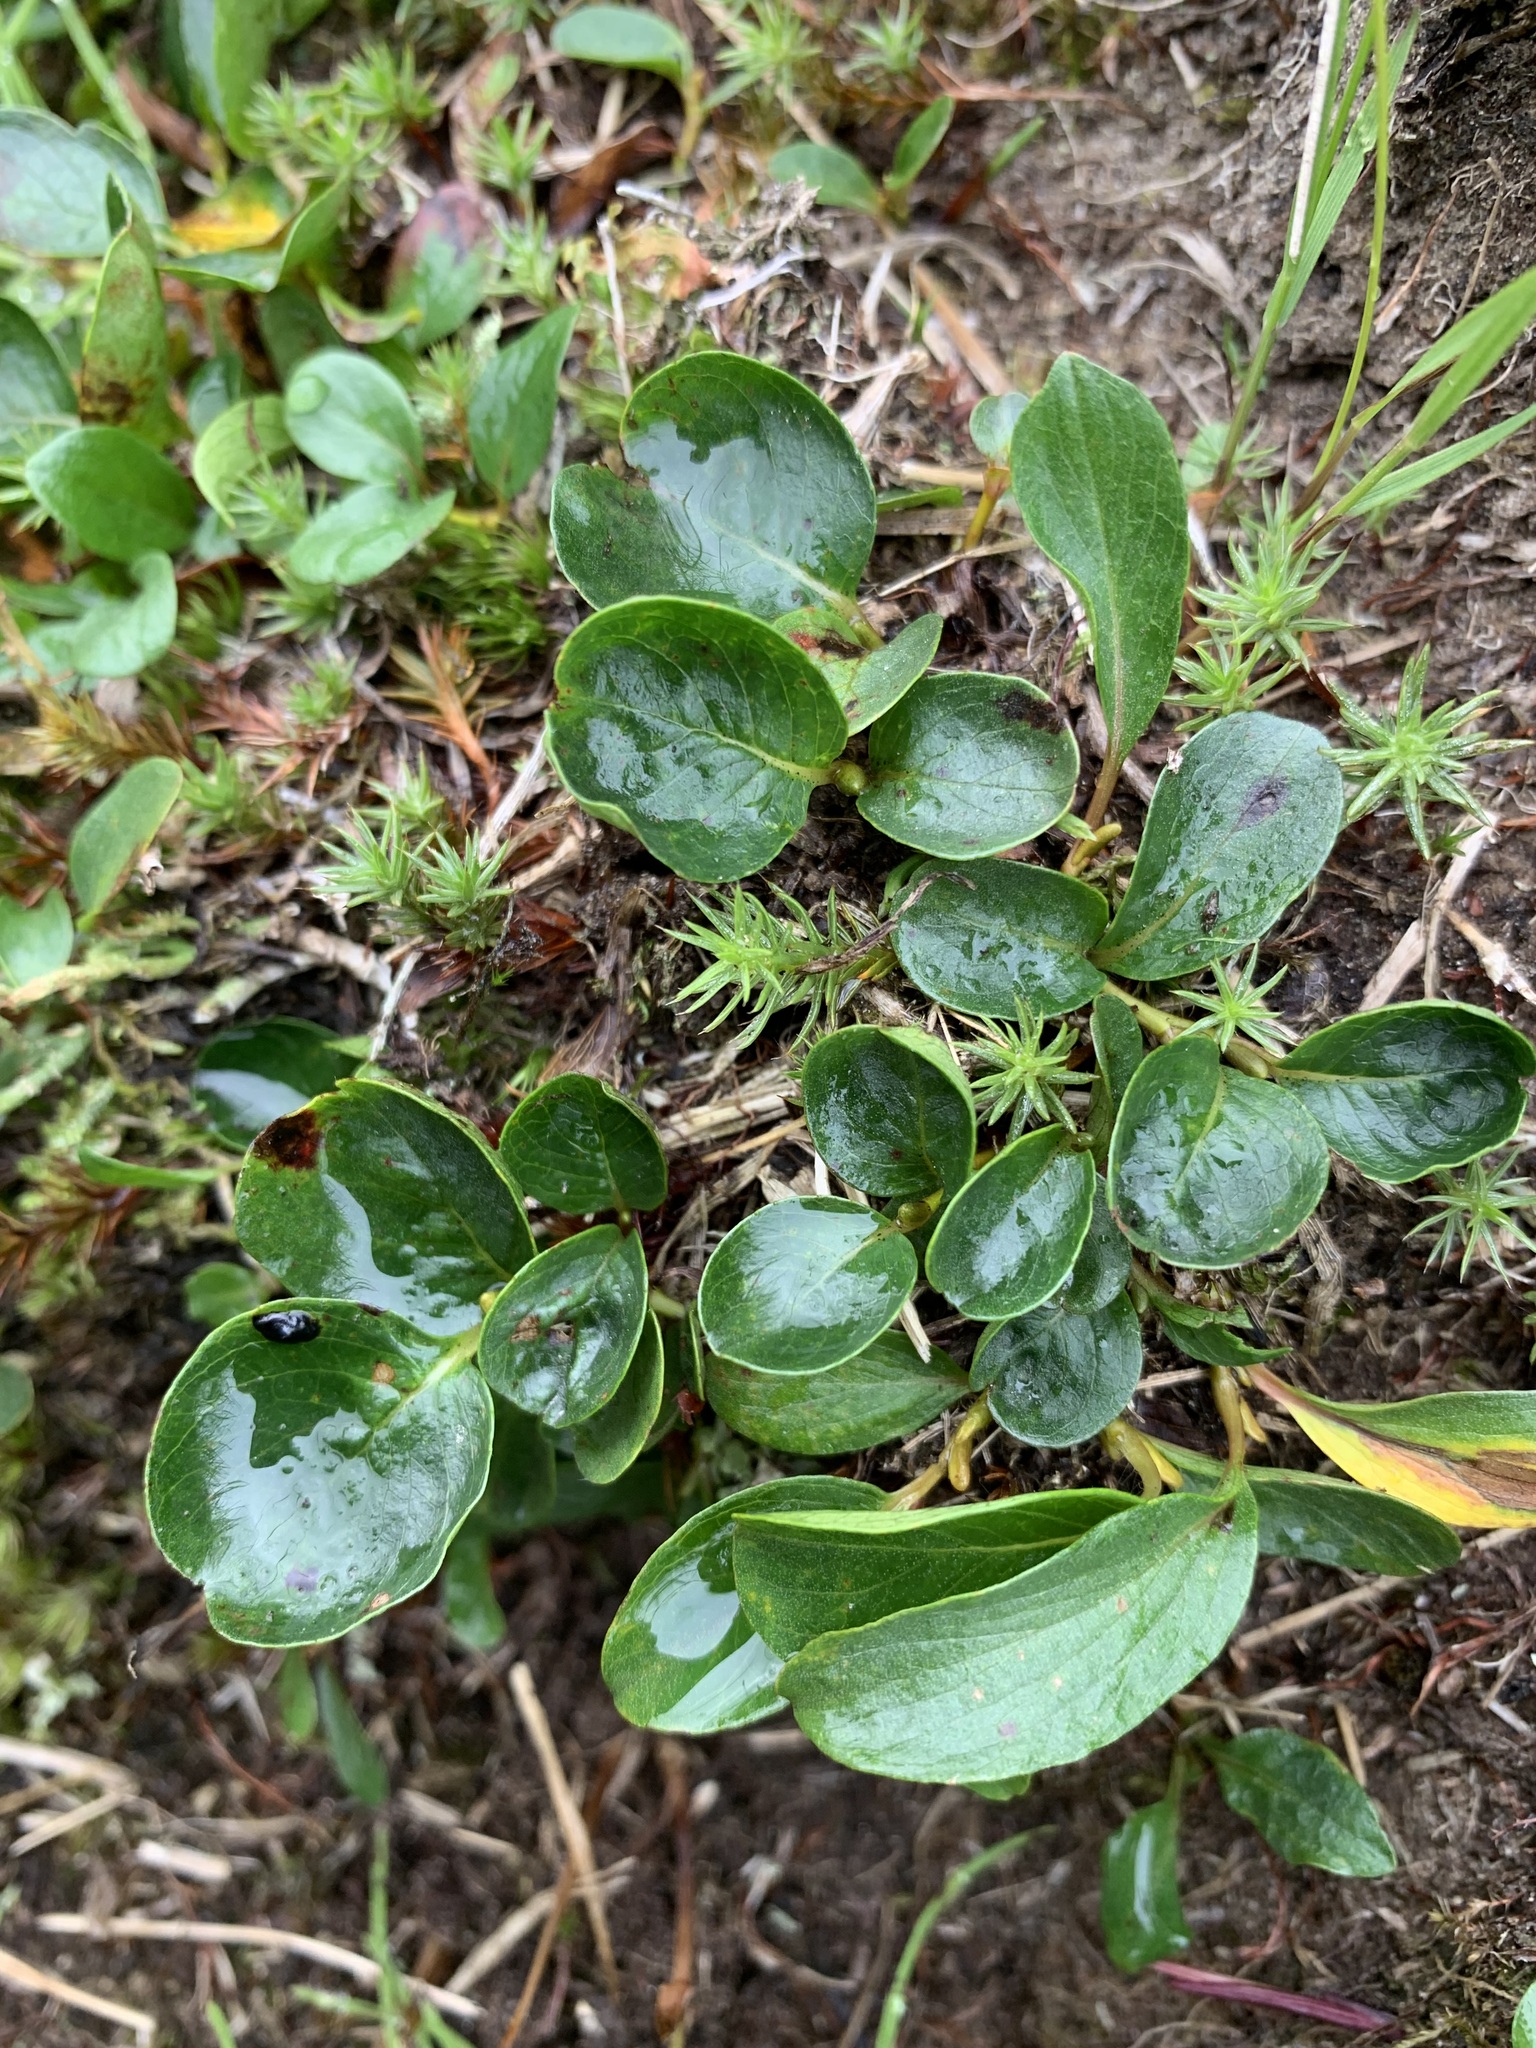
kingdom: Plantae
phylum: Tracheophyta
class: Magnoliopsida
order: Malpighiales
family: Salicaceae
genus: Salix
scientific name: Salix polaris
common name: Polar willow
